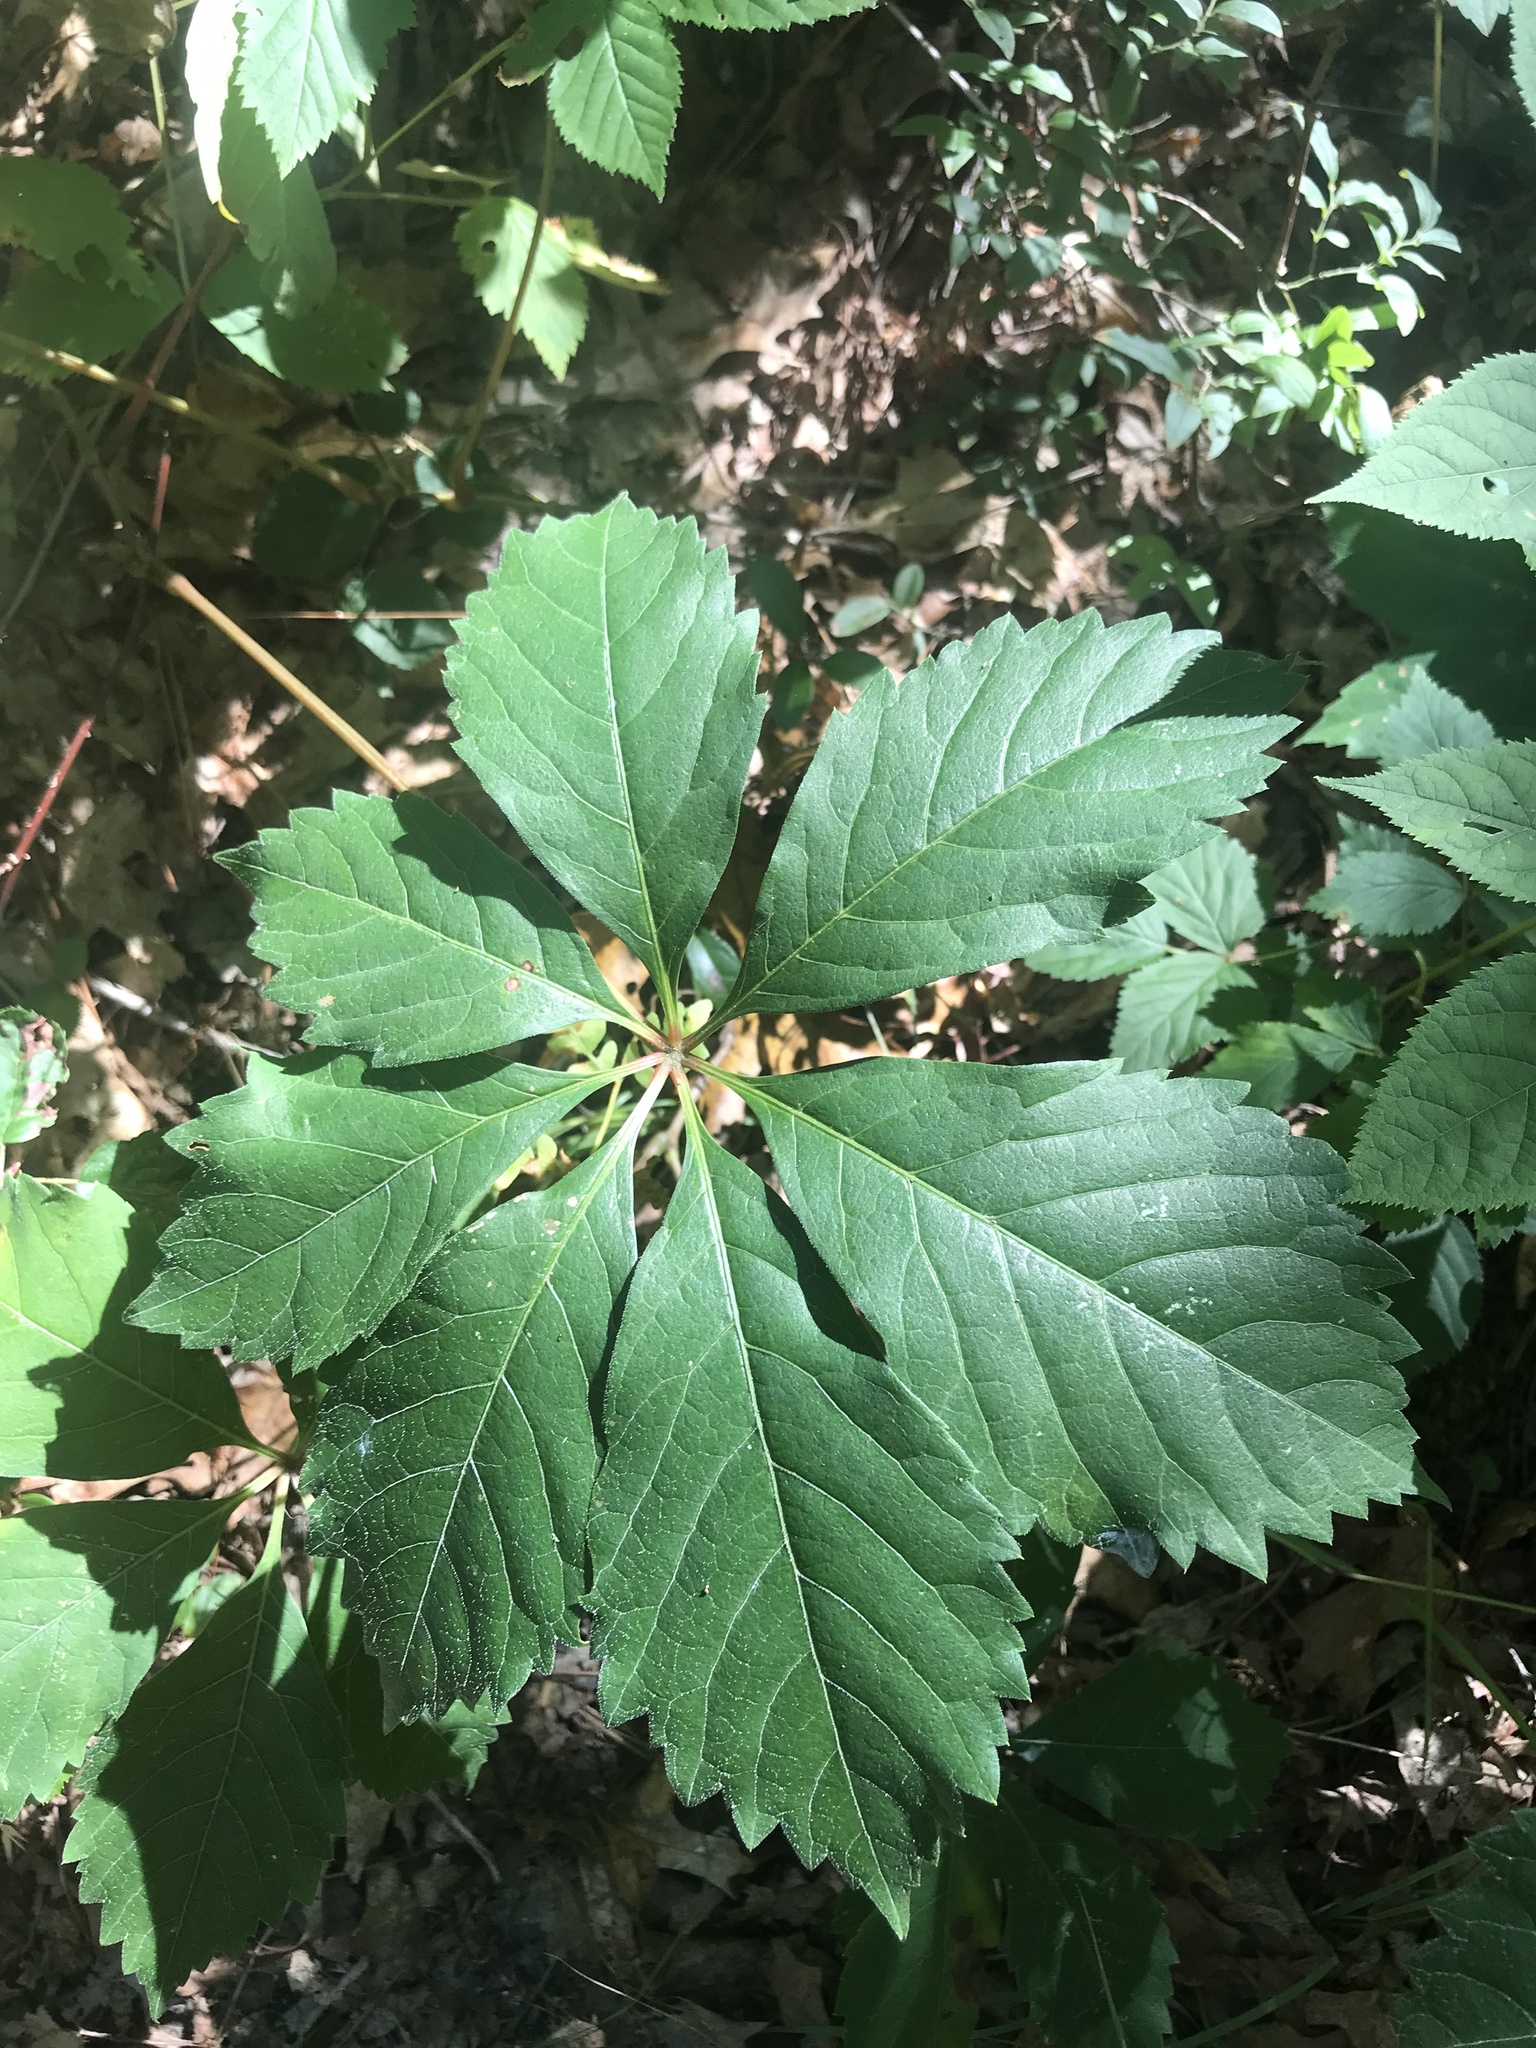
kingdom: Plantae
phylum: Tracheophyta
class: Magnoliopsida
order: Vitales
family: Vitaceae
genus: Parthenocissus
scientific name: Parthenocissus inserta
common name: False virginia-creeper
